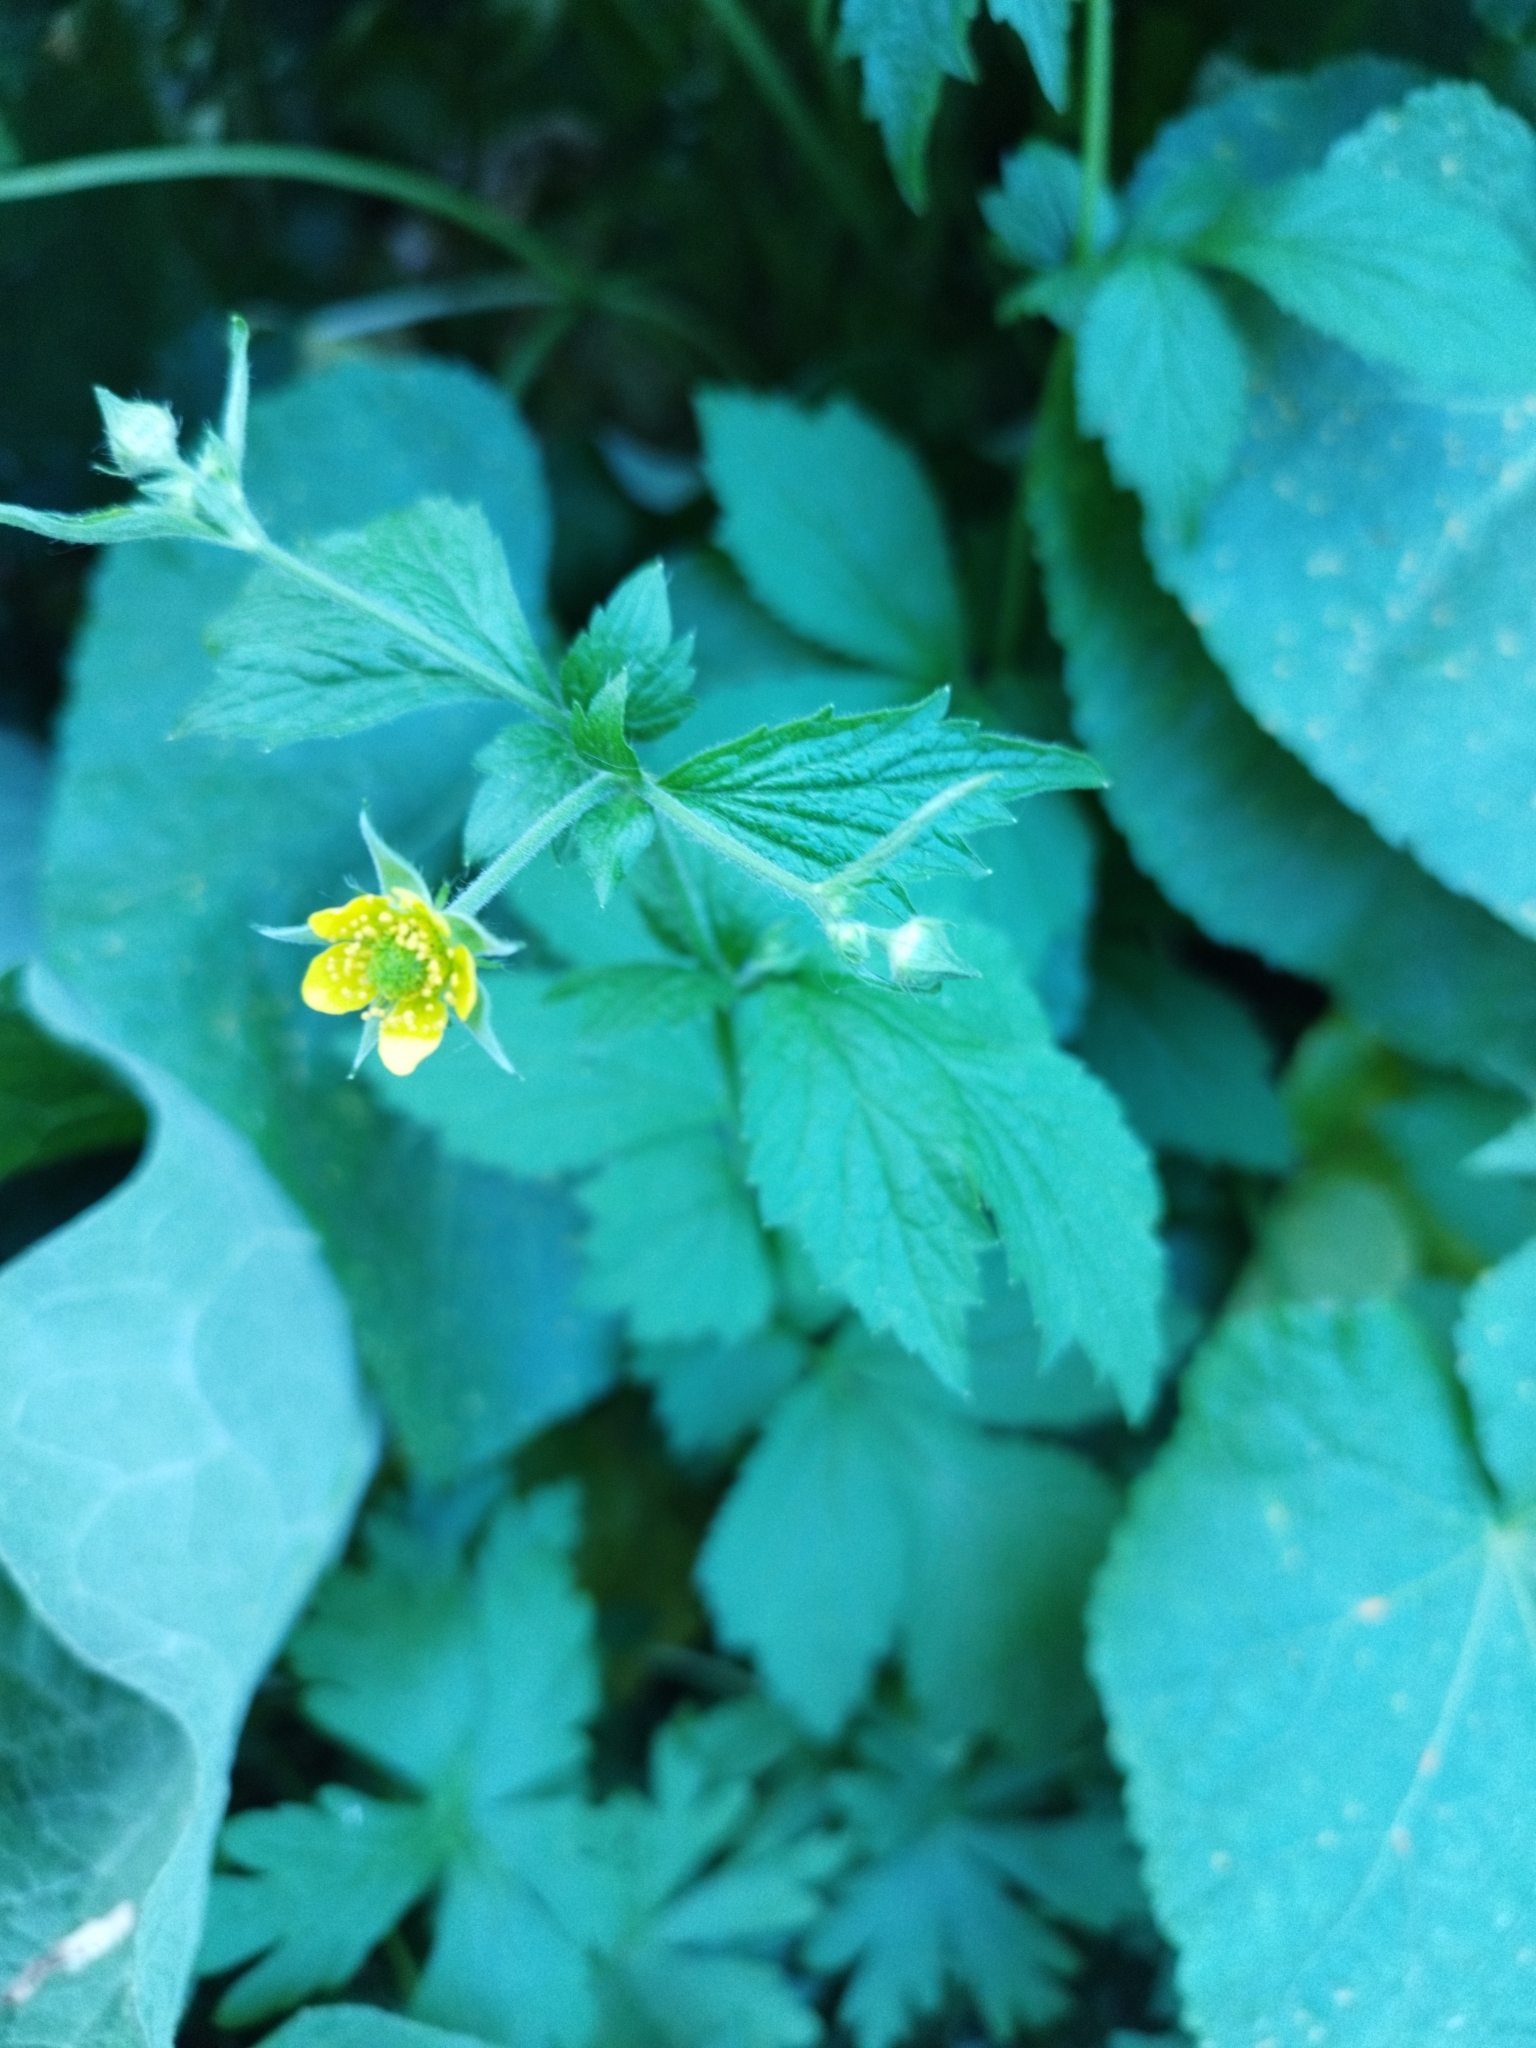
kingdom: Plantae
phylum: Tracheophyta
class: Magnoliopsida
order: Rosales
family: Rosaceae
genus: Geum
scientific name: Geum urbanum
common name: Wood avens
